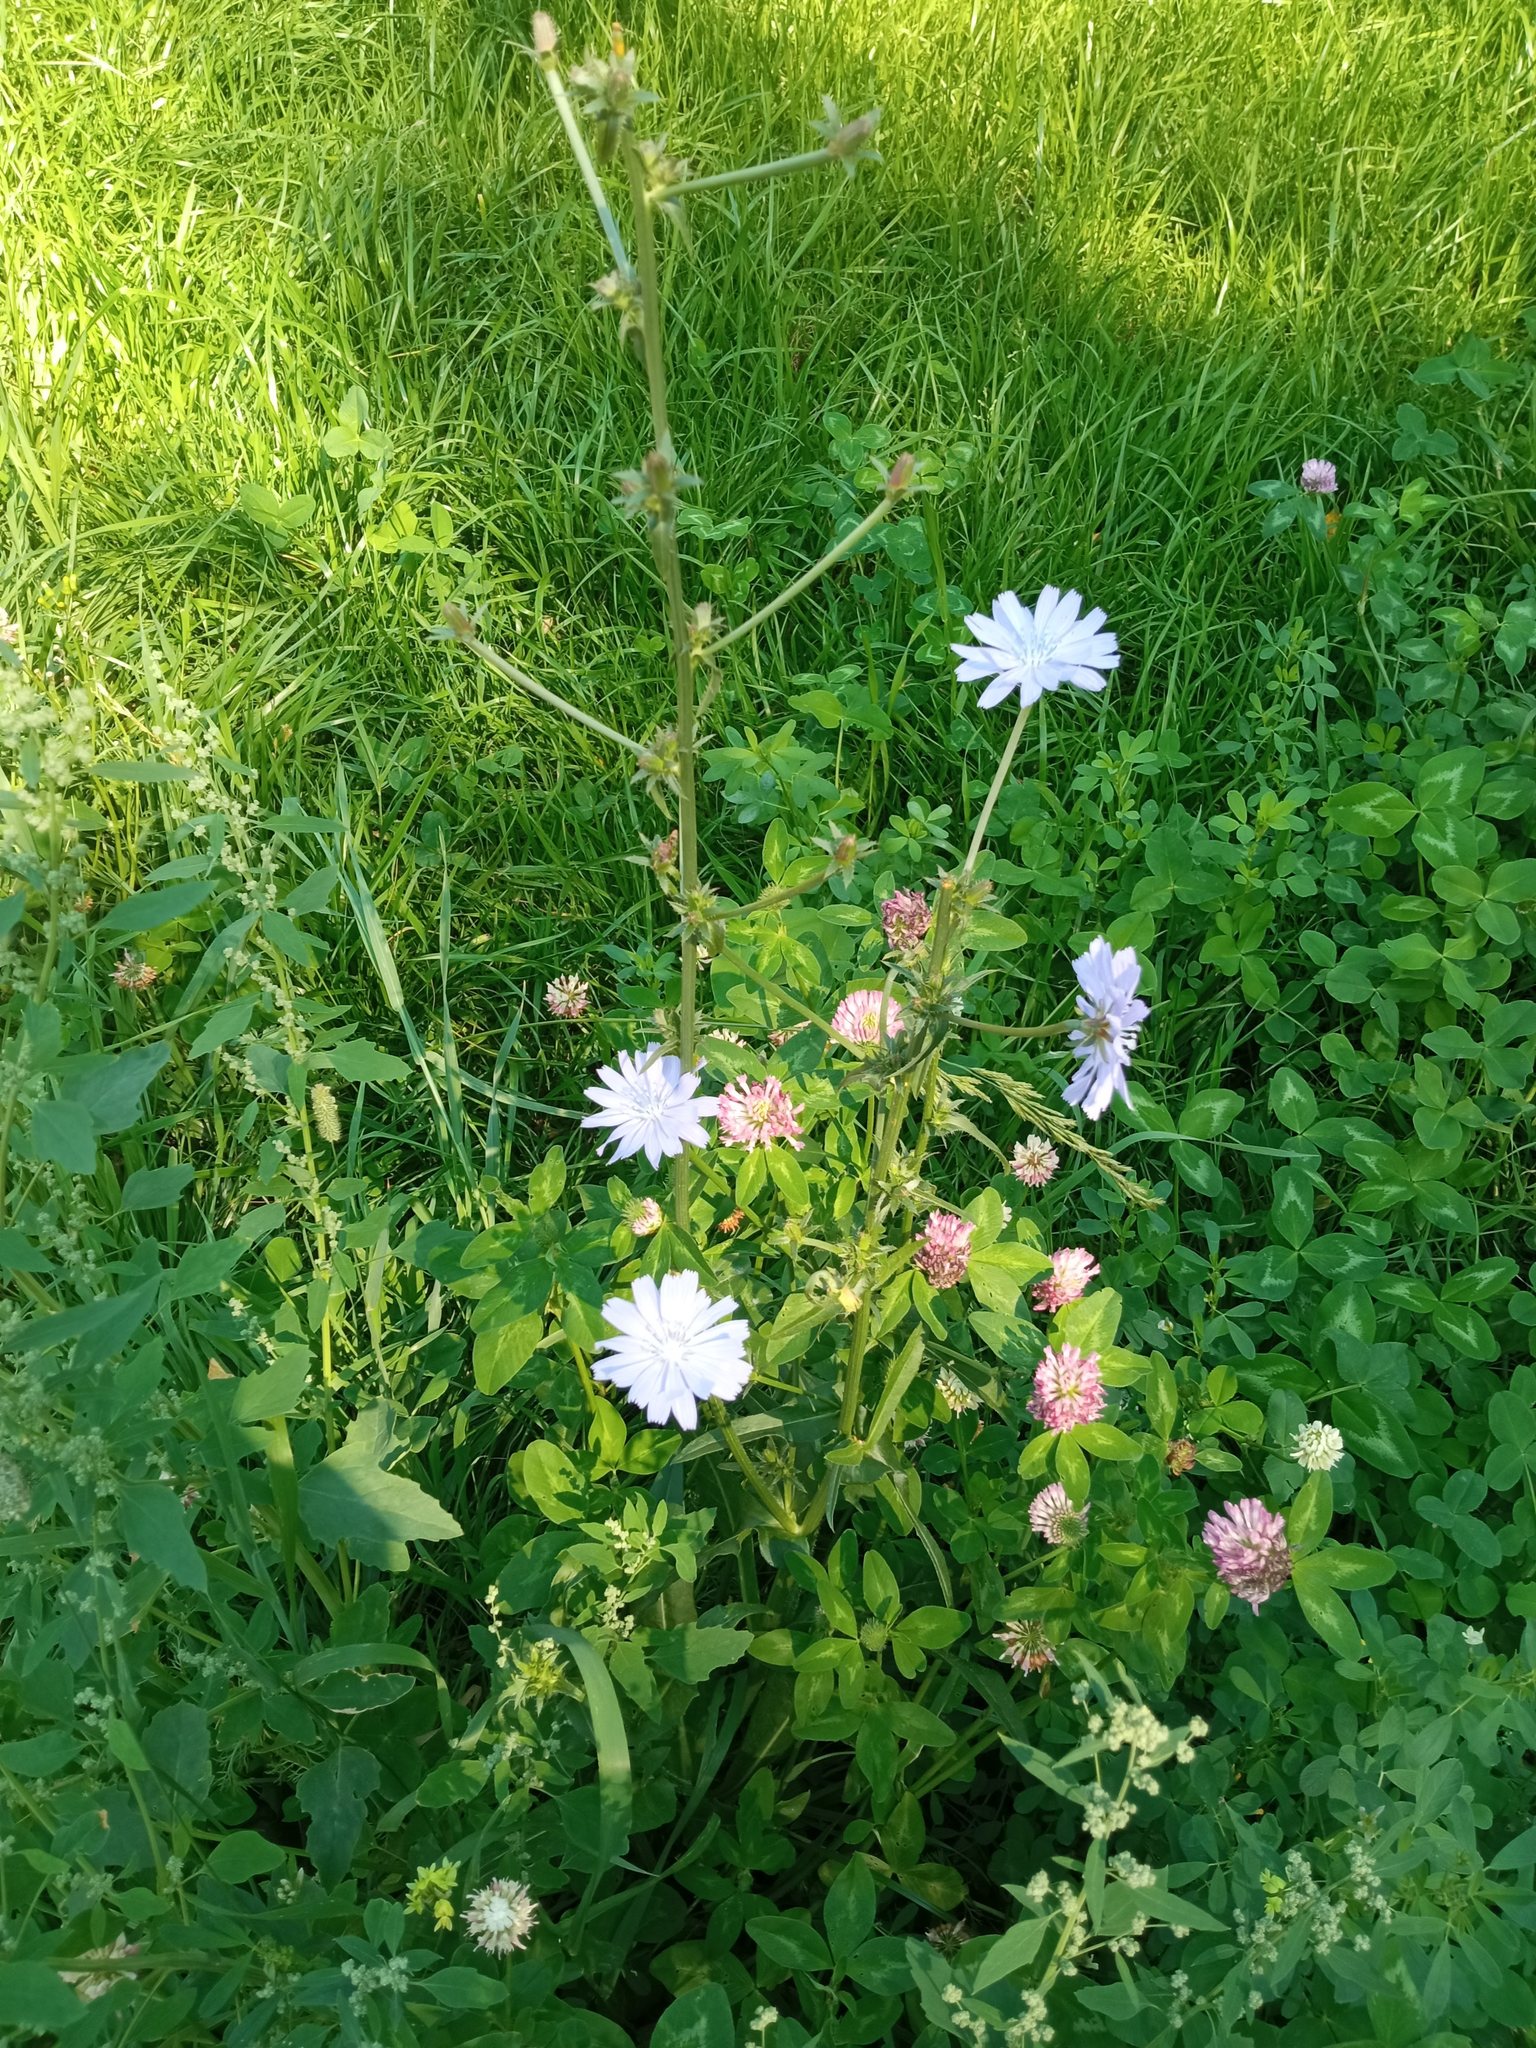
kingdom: Plantae
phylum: Tracheophyta
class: Magnoliopsida
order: Asterales
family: Asteraceae
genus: Cichorium
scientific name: Cichorium intybus
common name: Chicory
